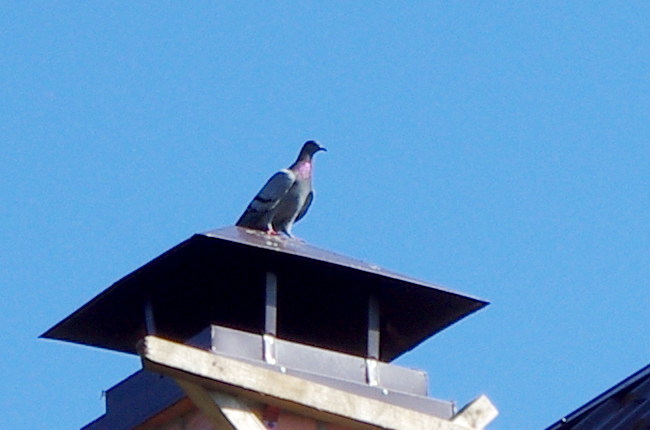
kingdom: Animalia
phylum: Chordata
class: Aves
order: Columbiformes
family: Columbidae
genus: Columba
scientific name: Columba livia
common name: Rock pigeon
